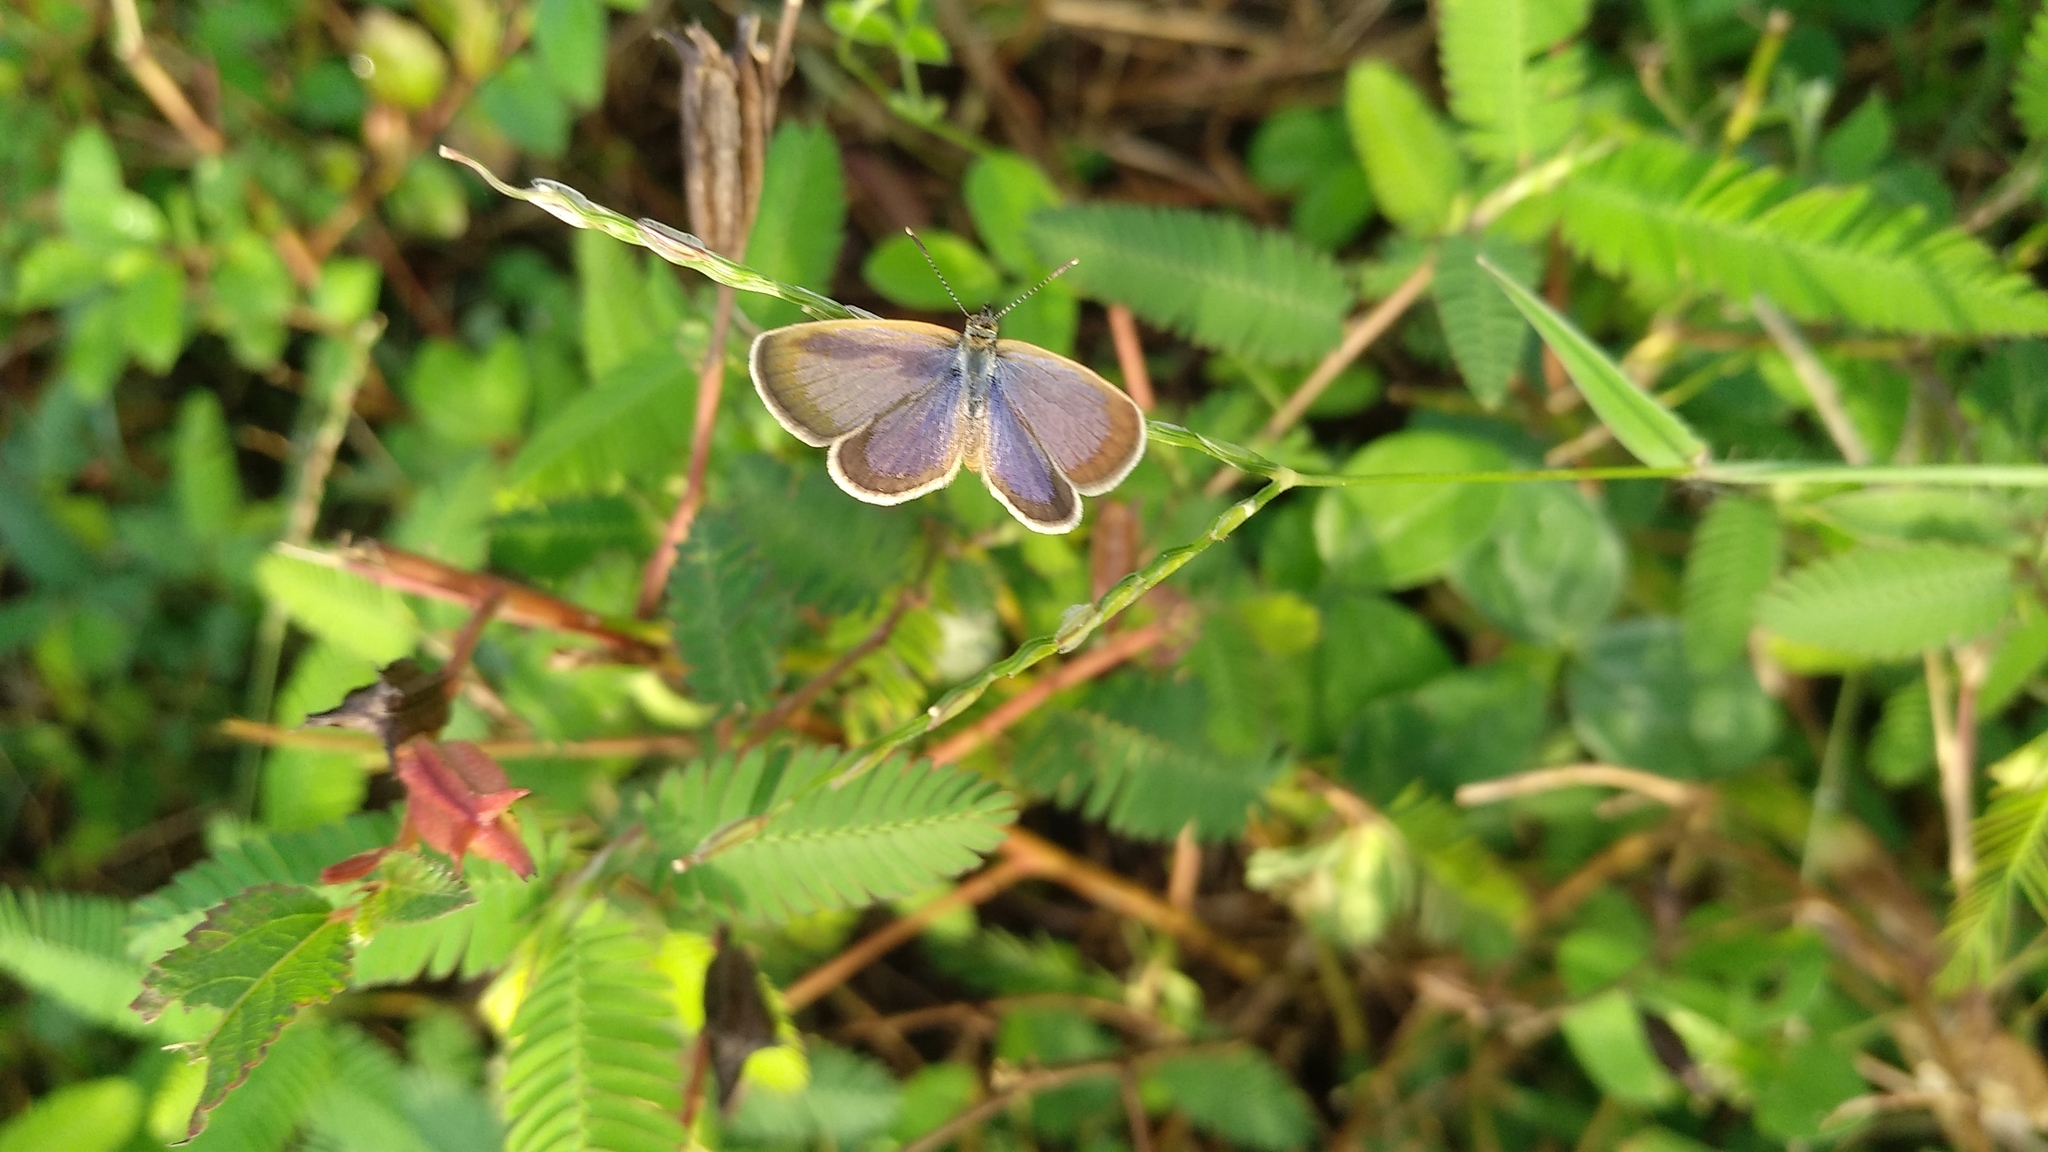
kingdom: Animalia
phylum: Arthropoda
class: Insecta
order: Lepidoptera
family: Lycaenidae
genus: Zizeeria
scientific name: Zizeeria karsandra
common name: Dark grass blue
